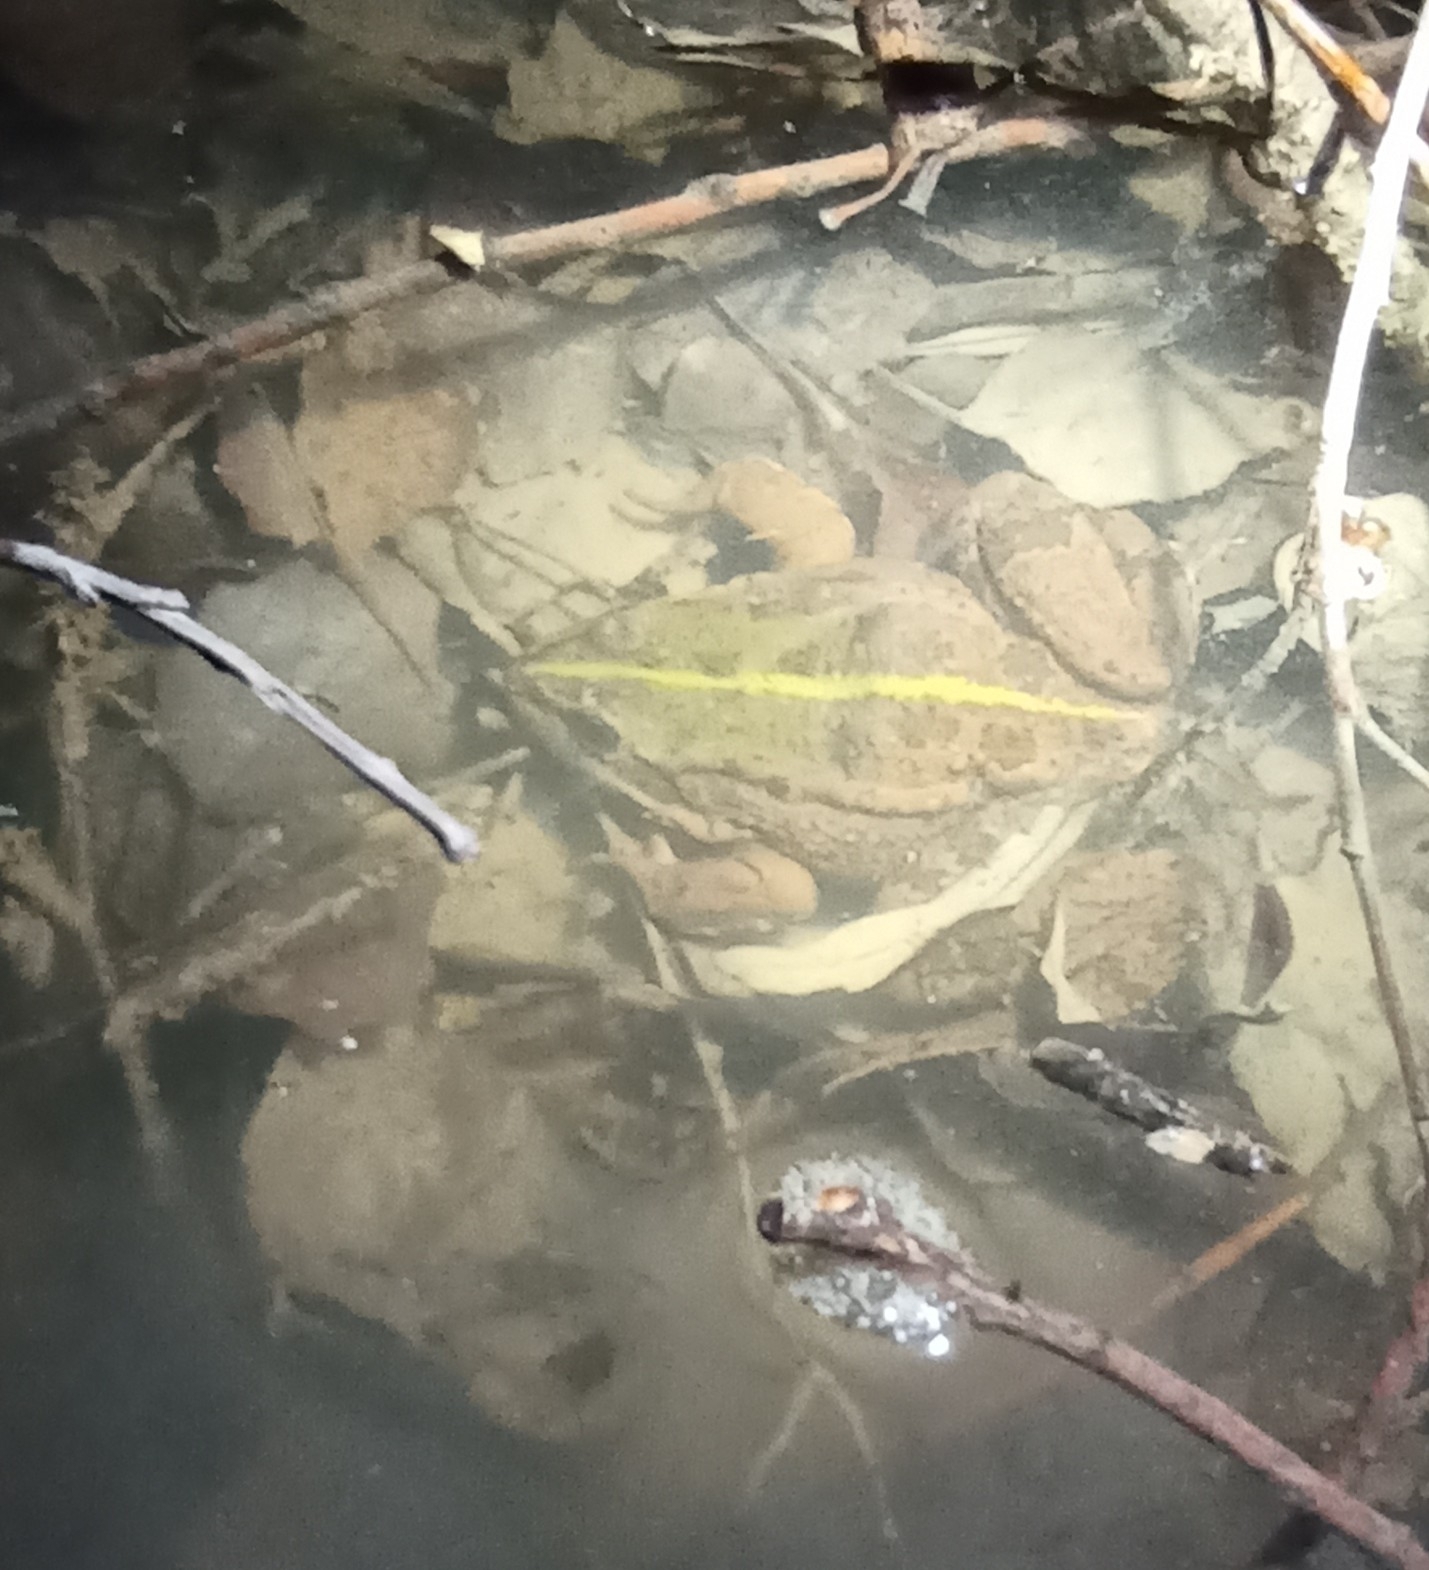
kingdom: Animalia
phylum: Chordata
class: Amphibia
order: Anura
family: Ranidae
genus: Pelophylax
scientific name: Pelophylax
